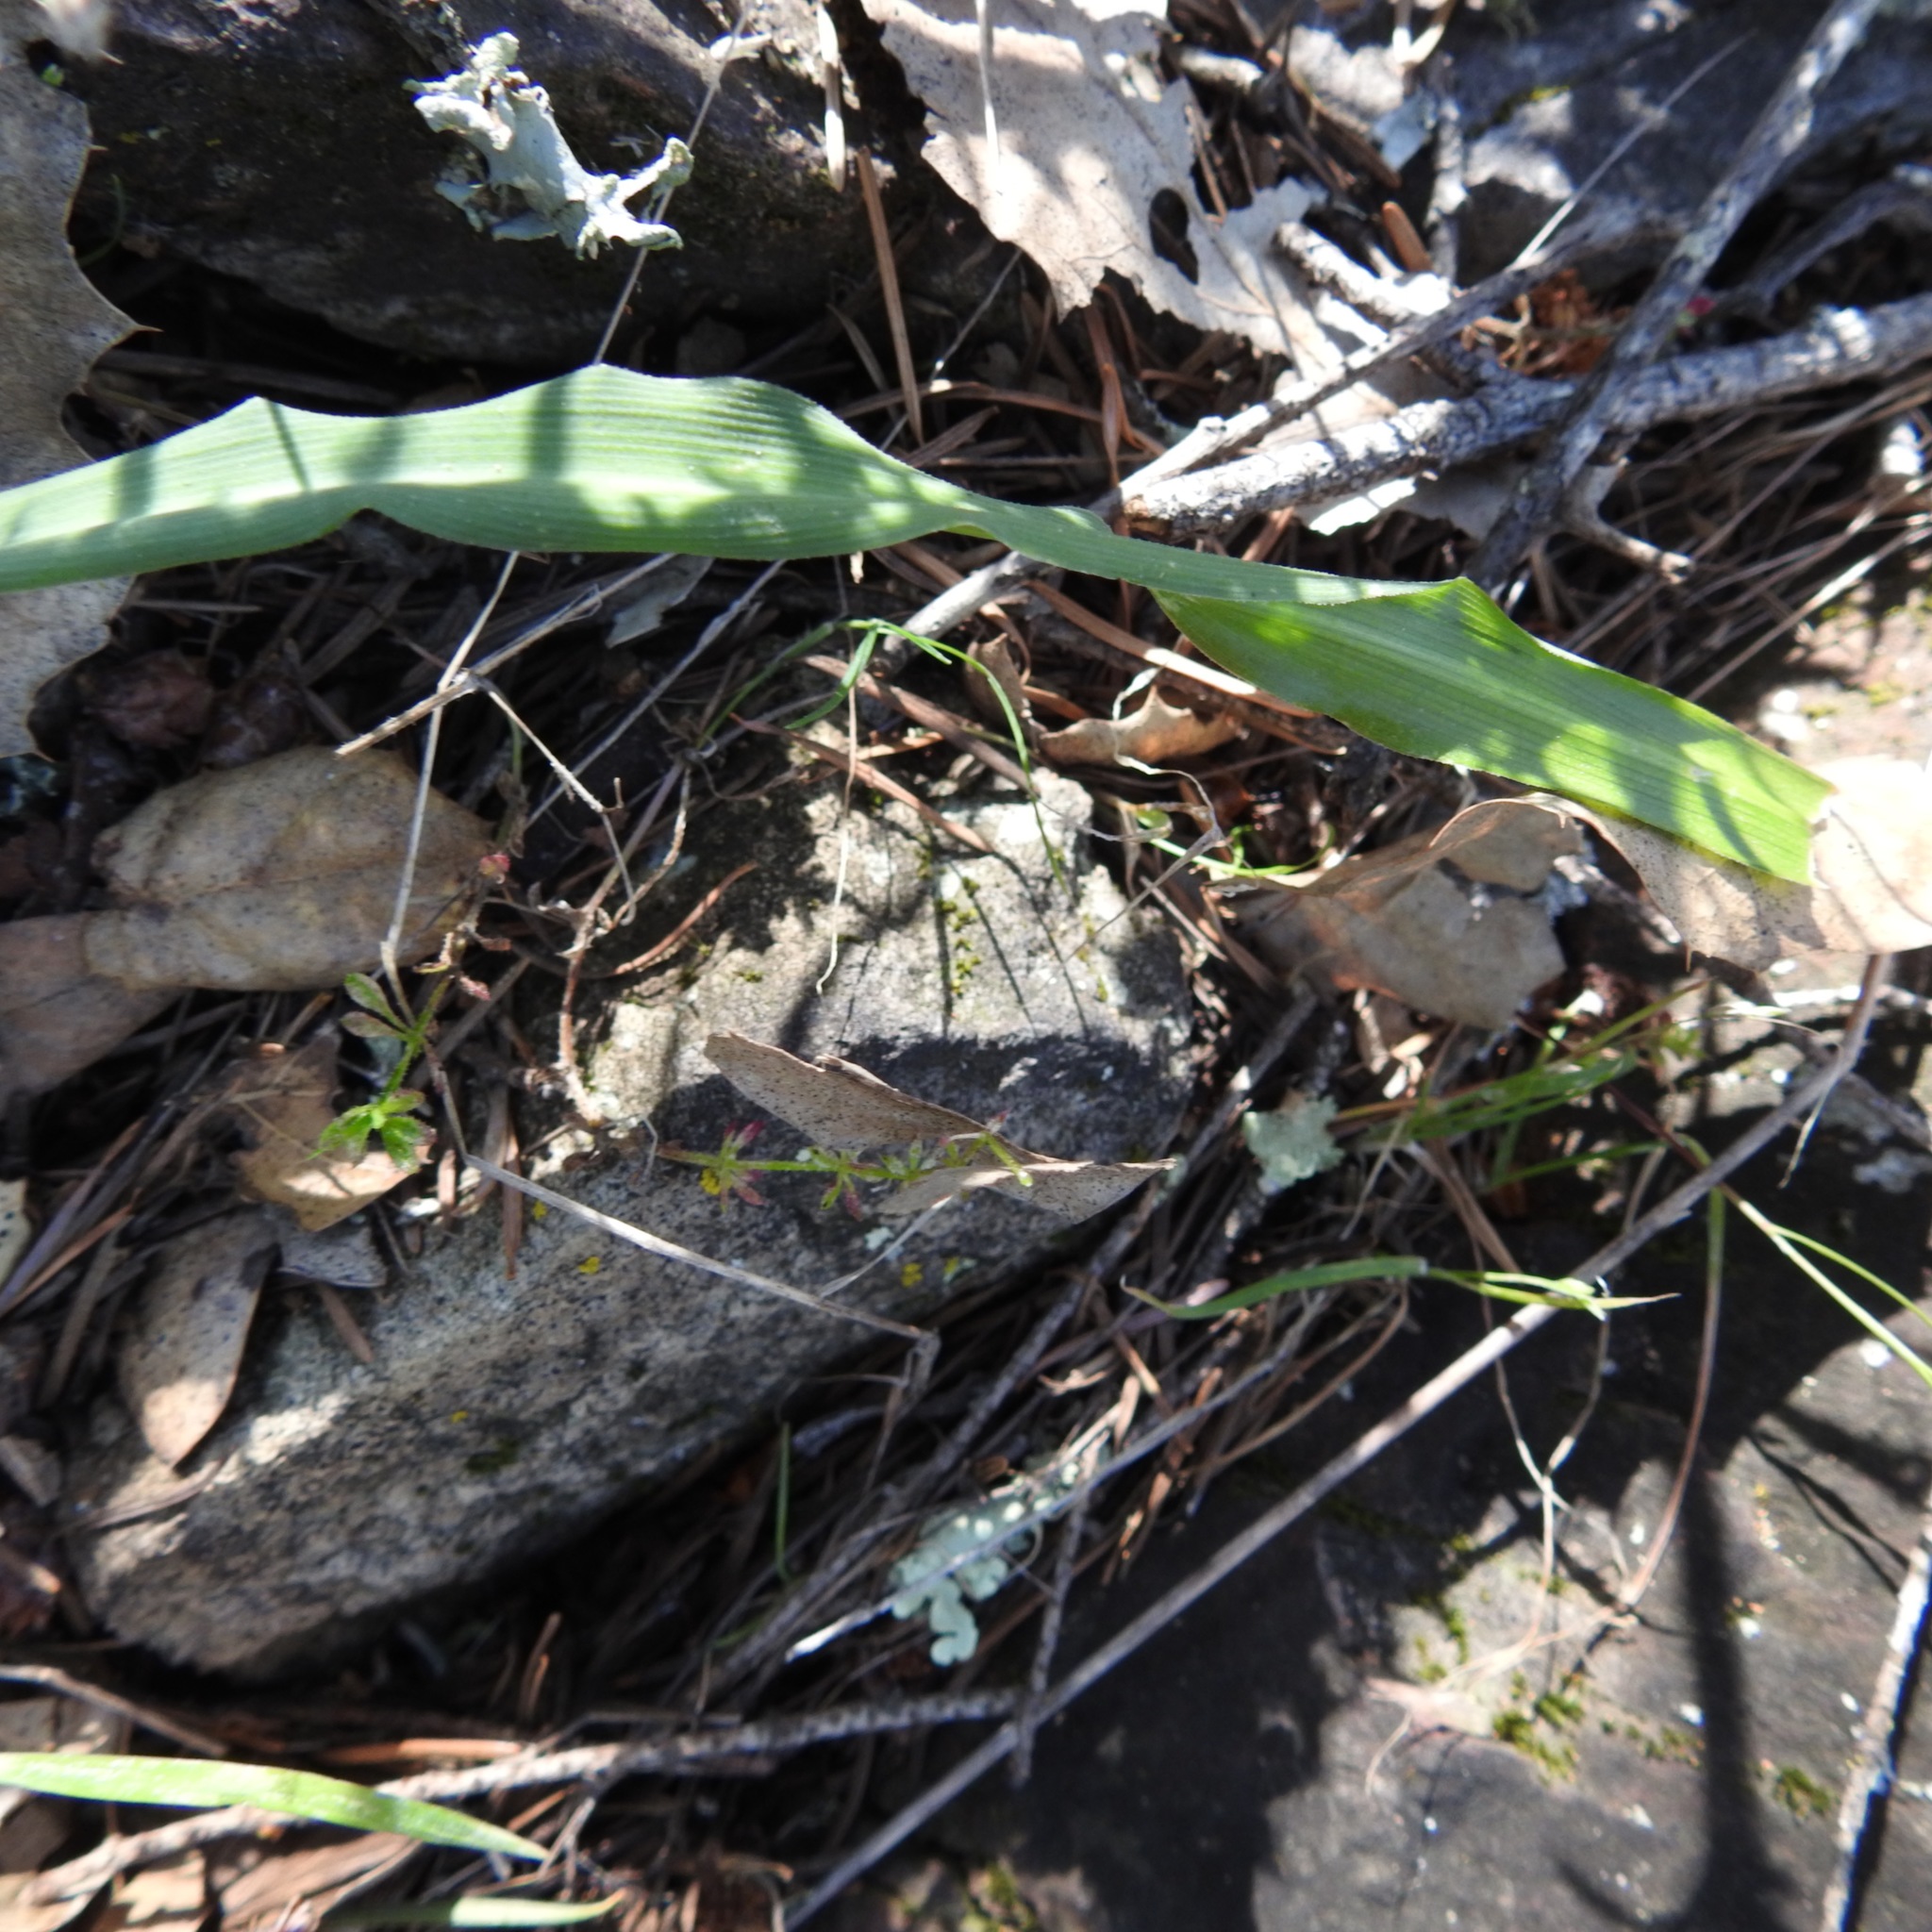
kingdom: Plantae
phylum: Tracheophyta
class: Liliopsida
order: Asparagales
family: Asparagaceae
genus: Chlorogalum
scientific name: Chlorogalum pomeridianum
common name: Amole
